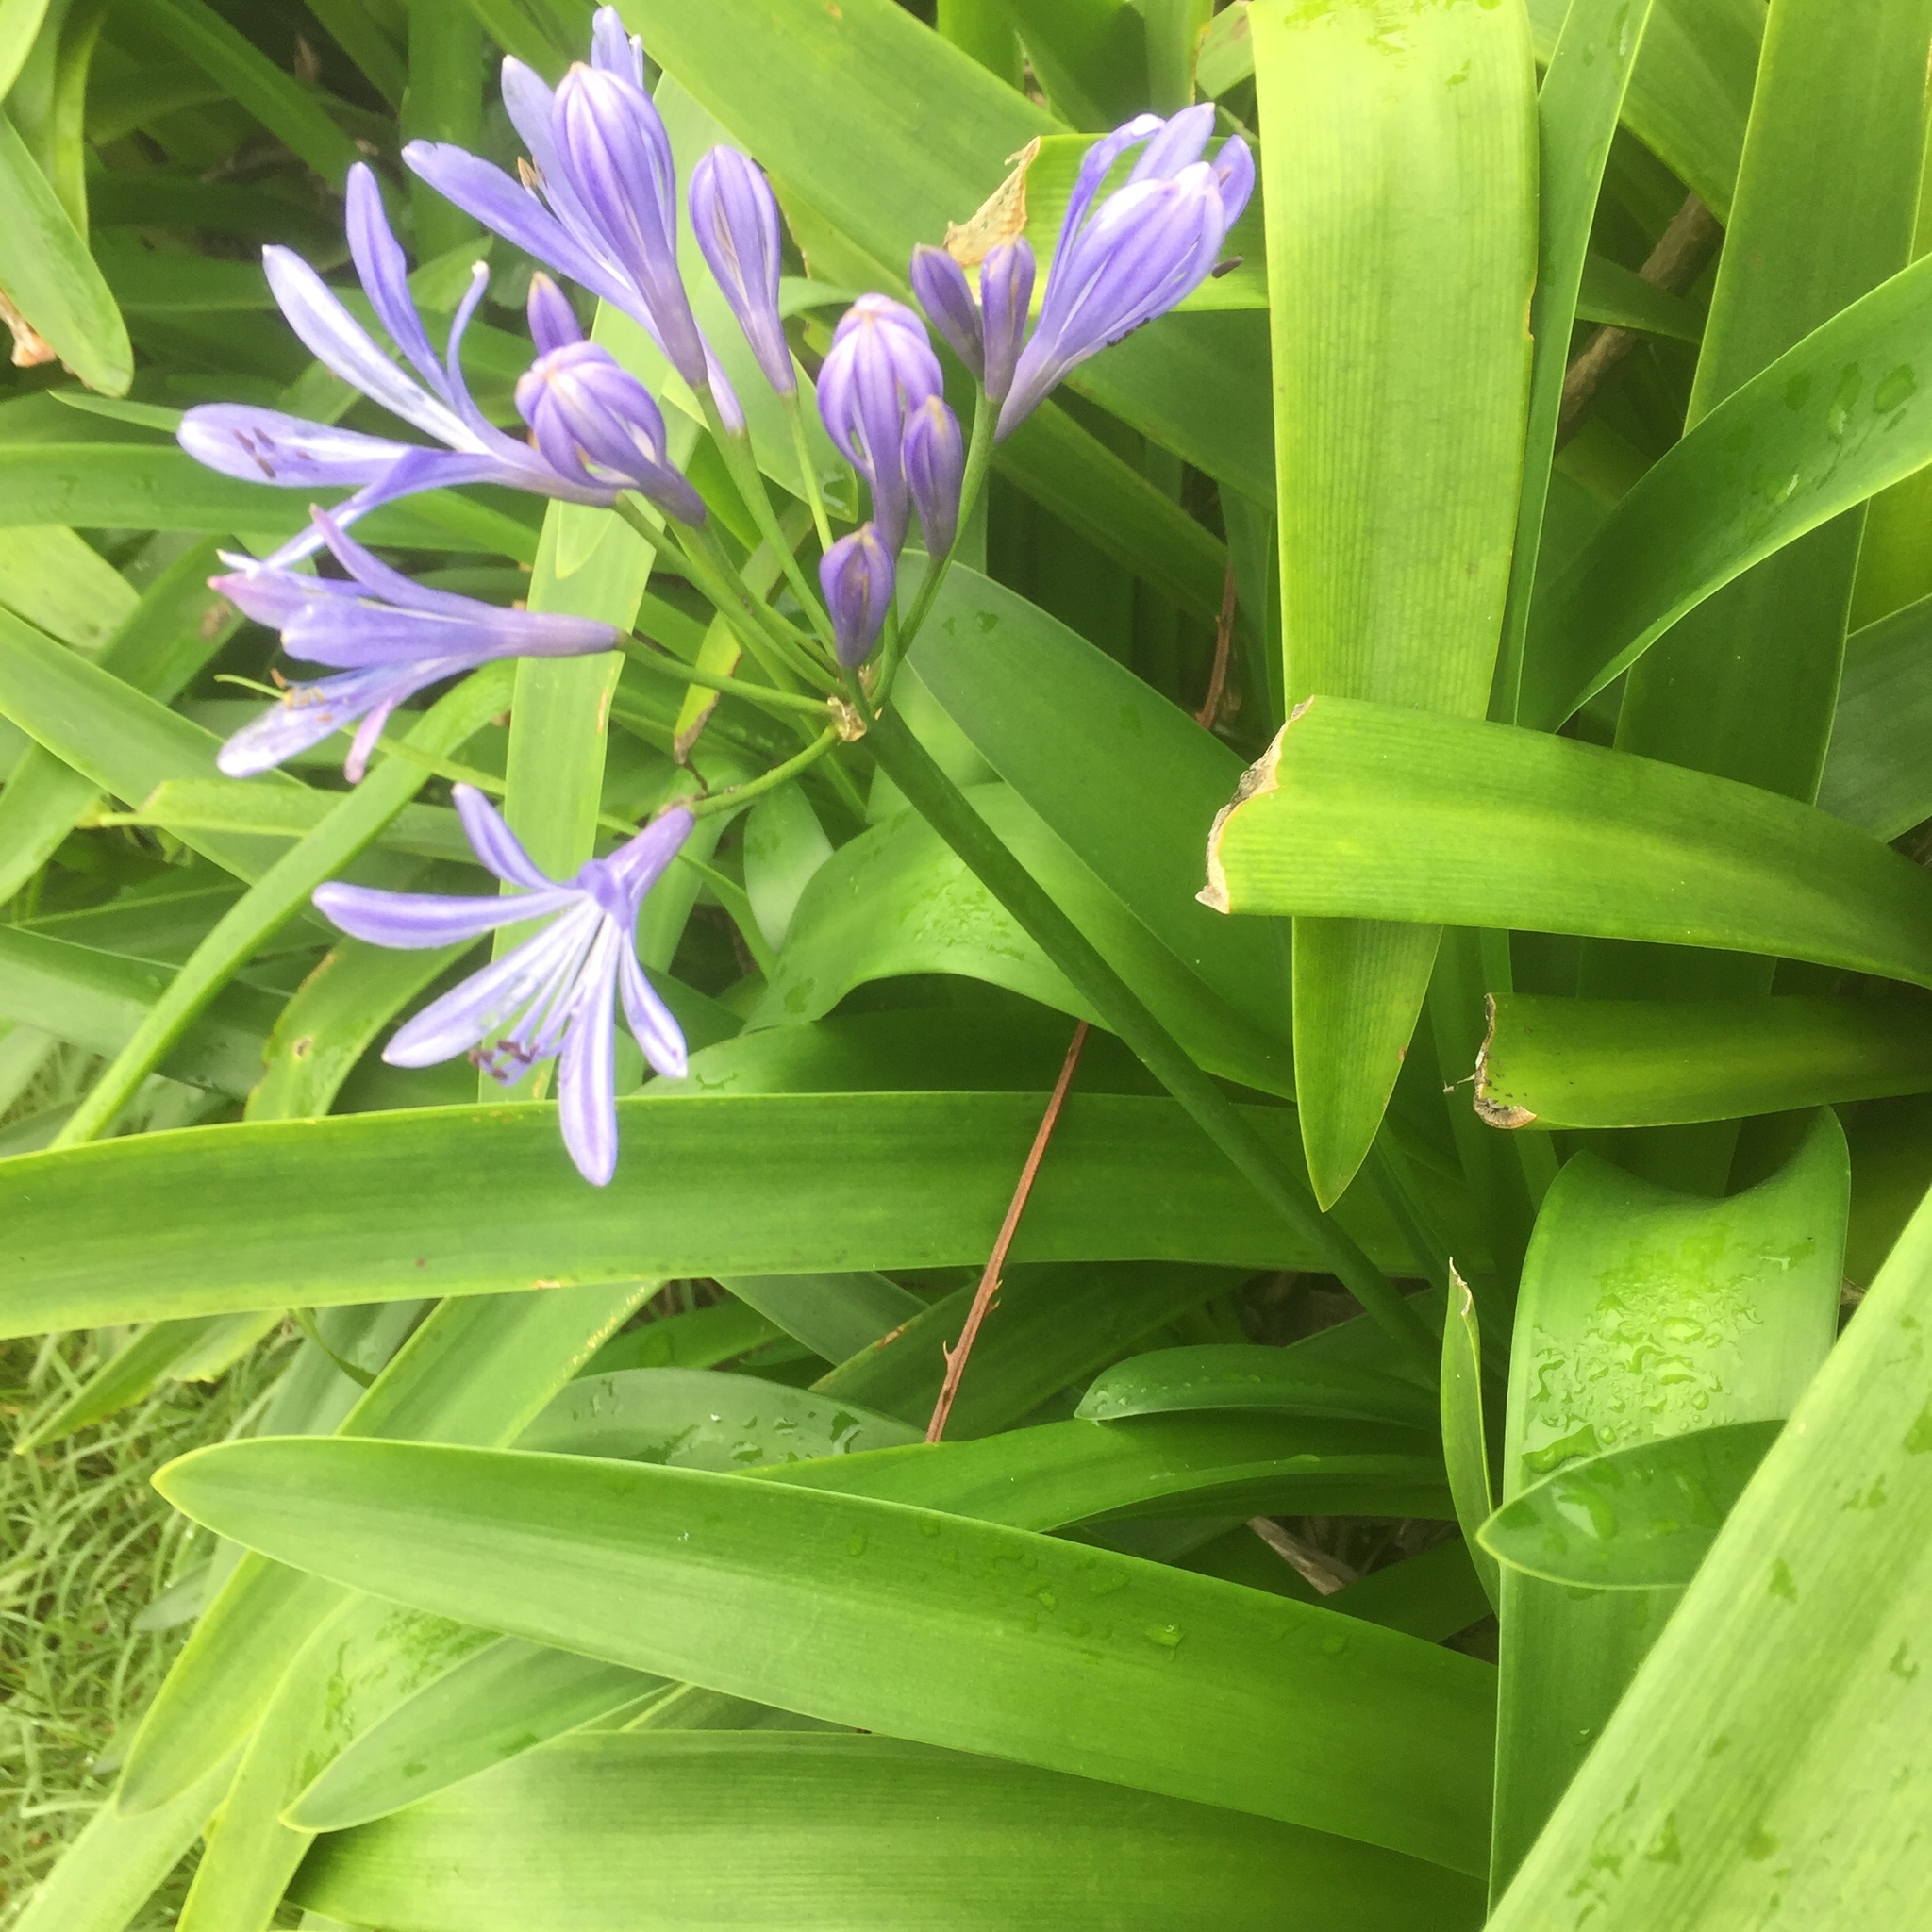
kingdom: Plantae
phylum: Tracheophyta
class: Liliopsida
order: Asparagales
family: Amaryllidaceae
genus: Agapanthus
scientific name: Agapanthus praecox
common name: African-lily
